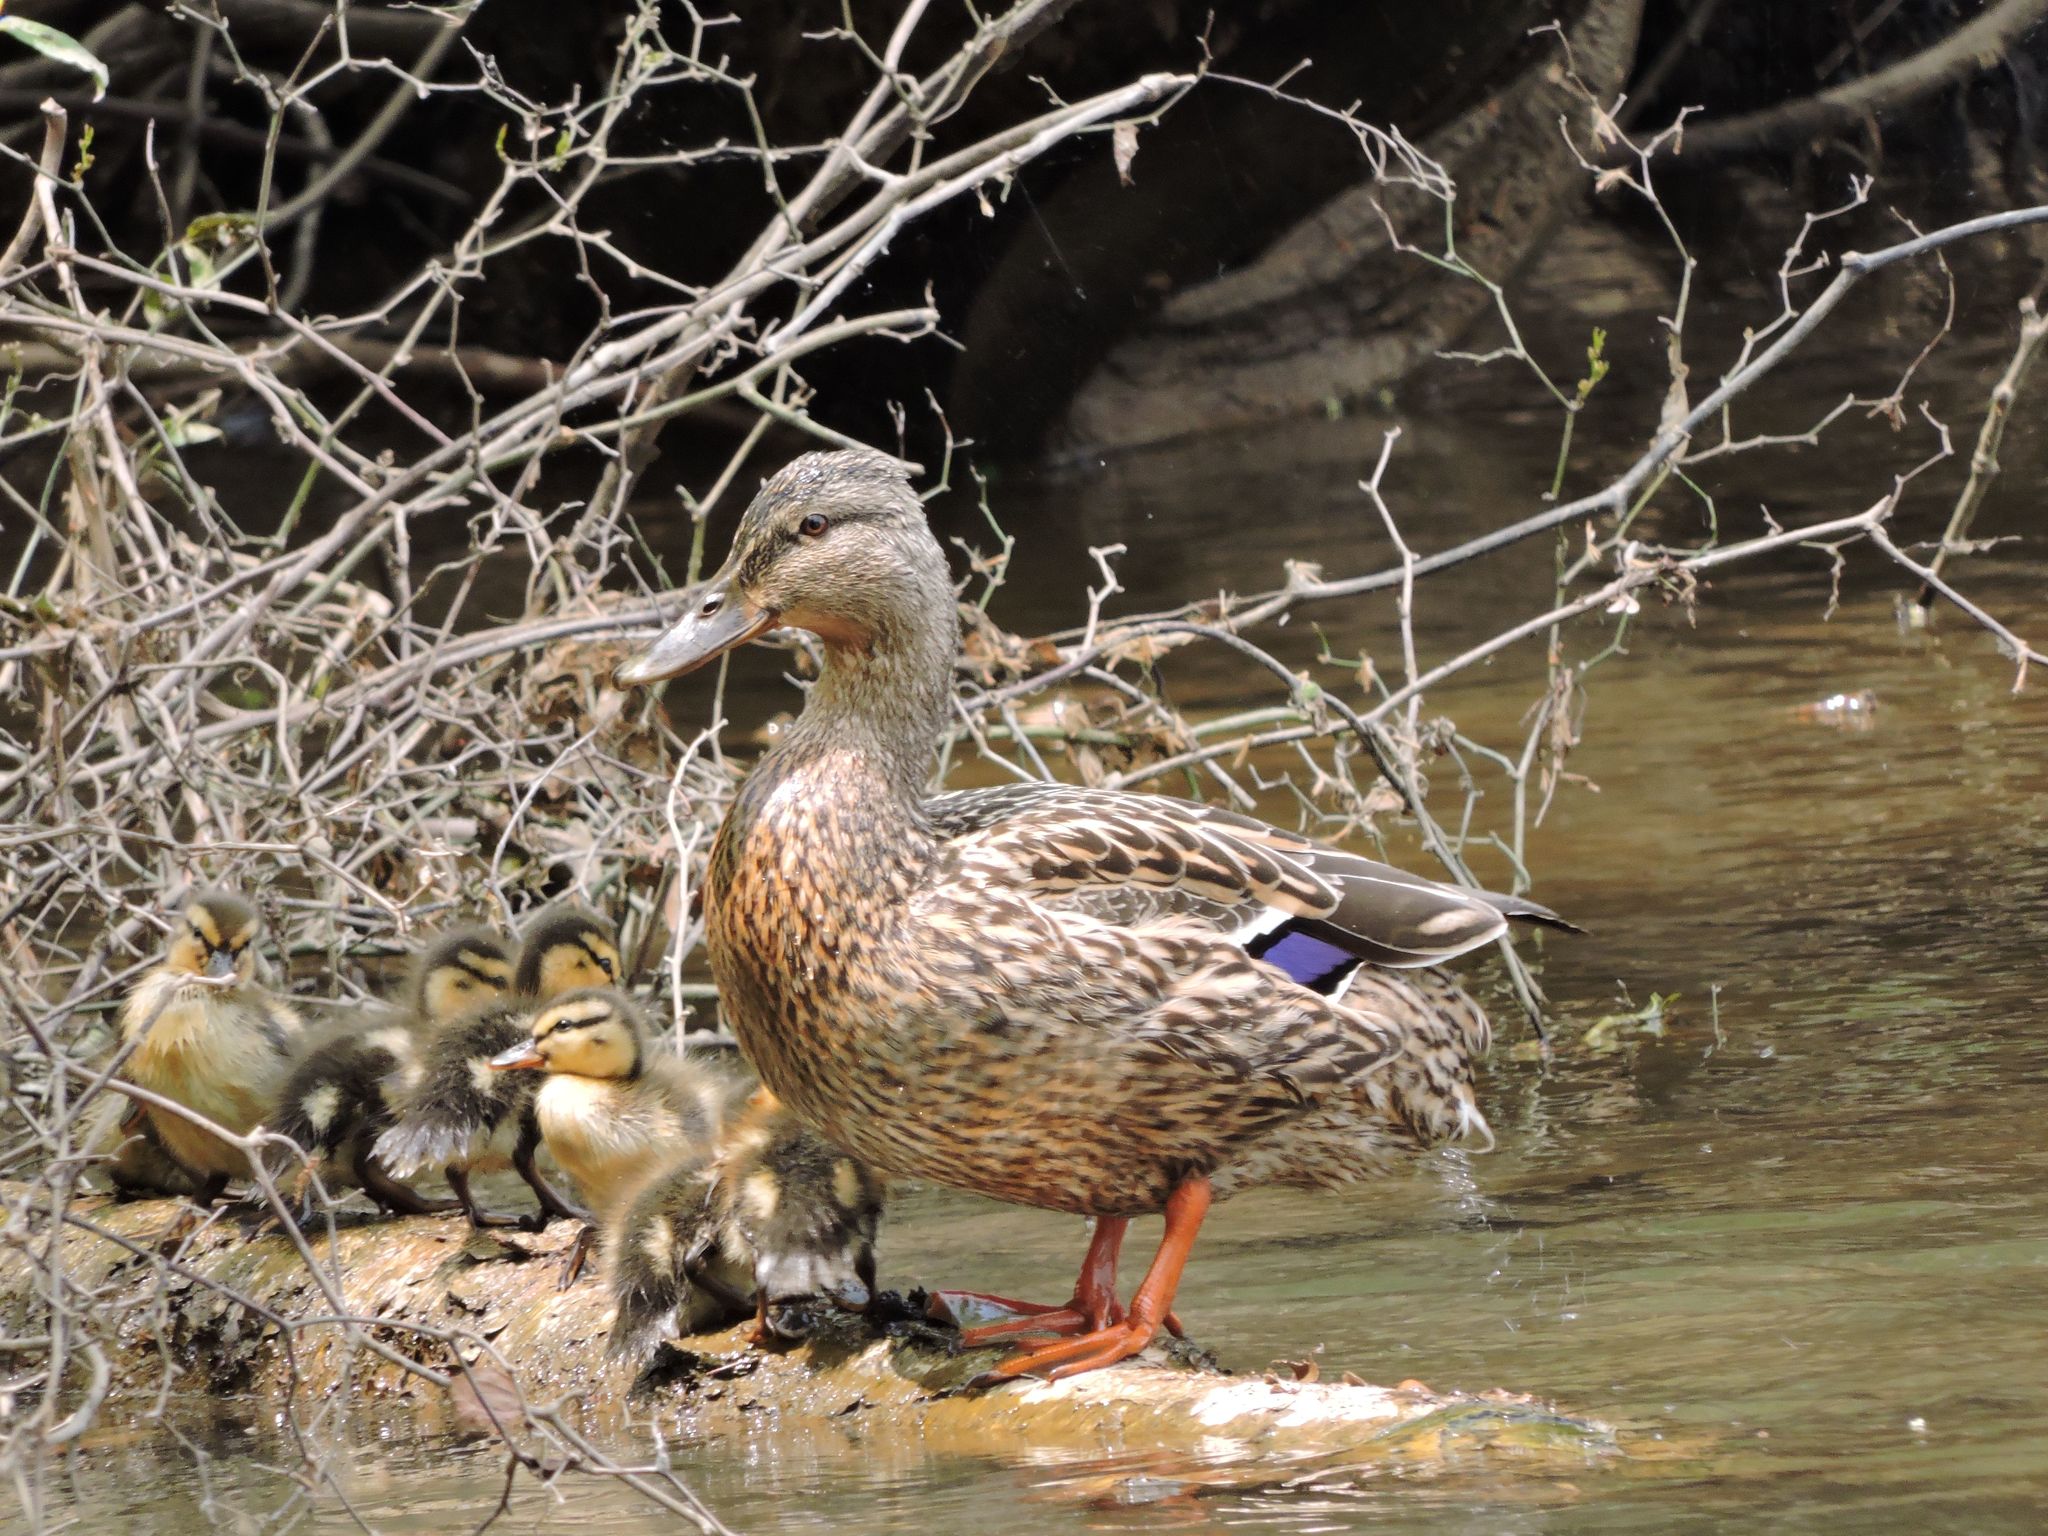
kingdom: Animalia
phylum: Chordata
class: Aves
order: Anseriformes
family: Anatidae
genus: Anas
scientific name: Anas platyrhynchos
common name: Mallard
